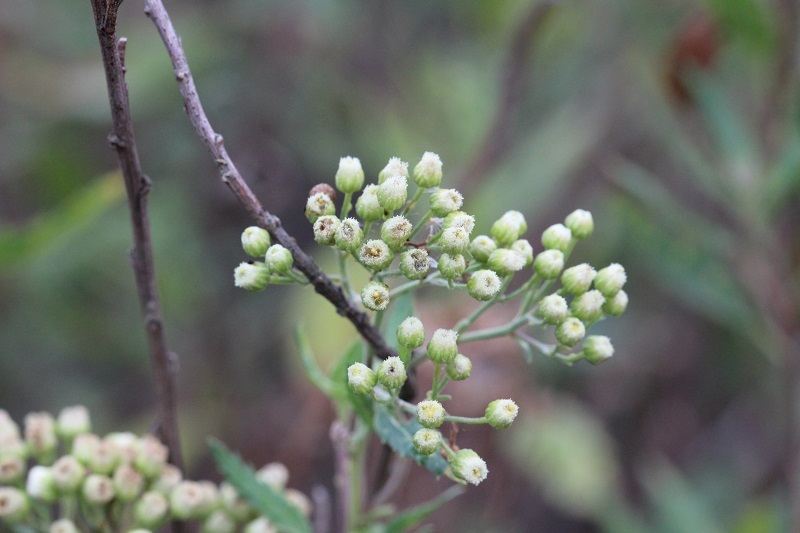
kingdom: Plantae
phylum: Tracheophyta
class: Magnoliopsida
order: Asterales
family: Asteraceae
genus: Nidorella
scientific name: Nidorella ivifolia
